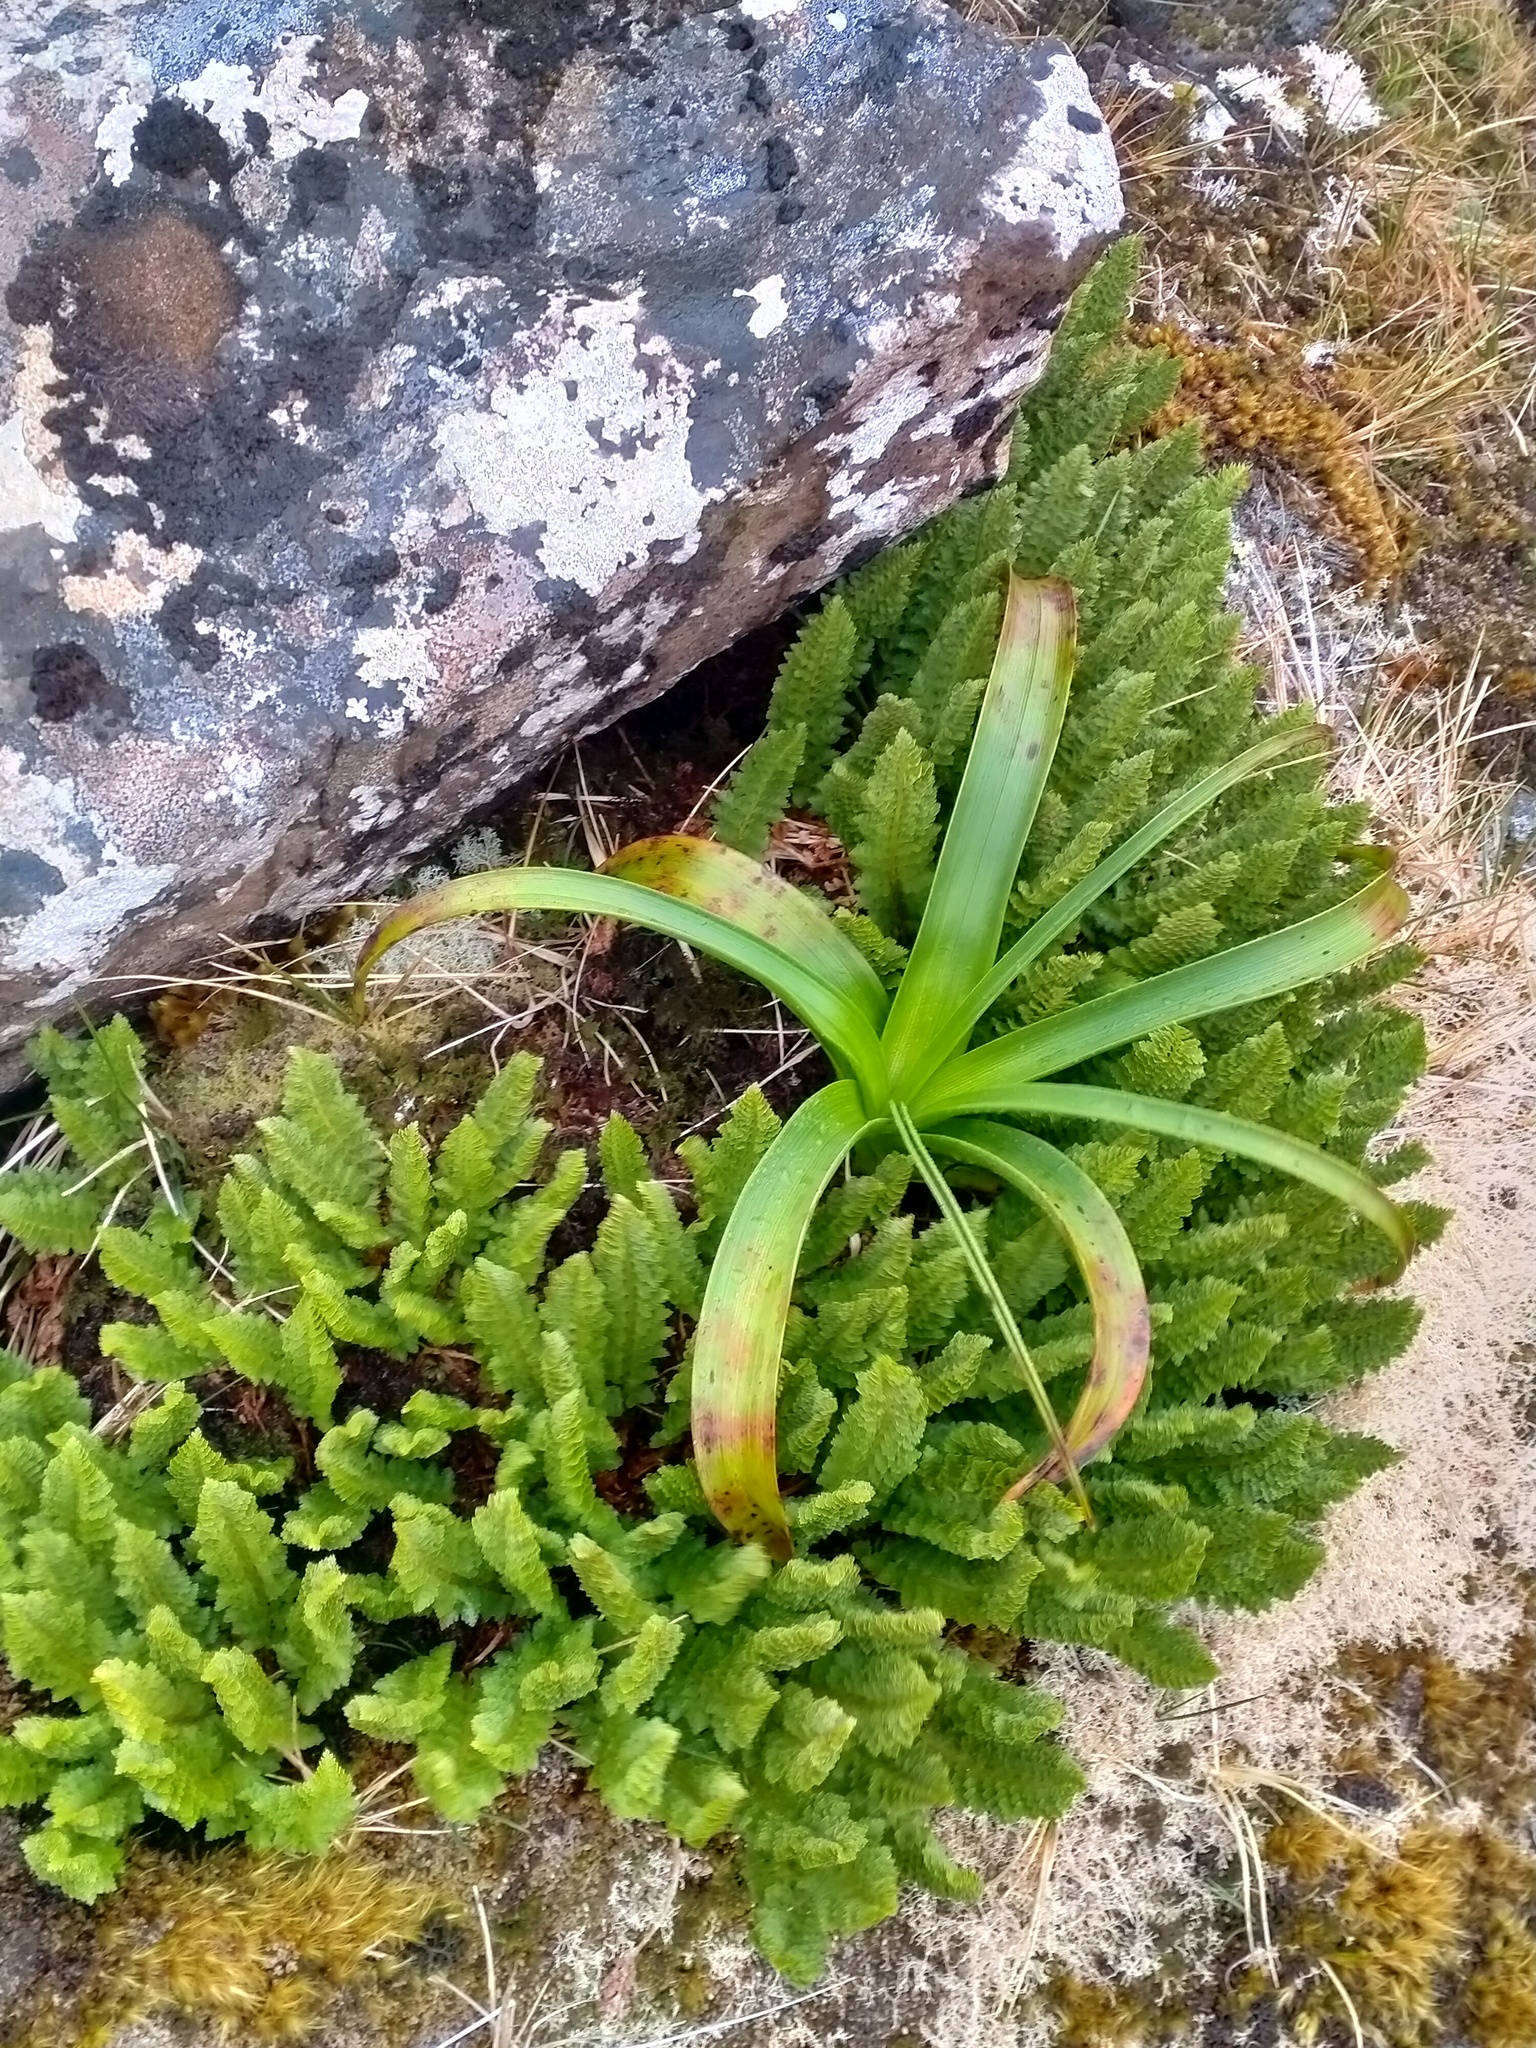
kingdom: Plantae
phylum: Tracheophyta
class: Liliopsida
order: Asparagales
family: Asphodelaceae
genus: Bulbinella
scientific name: Bulbinella rossii
